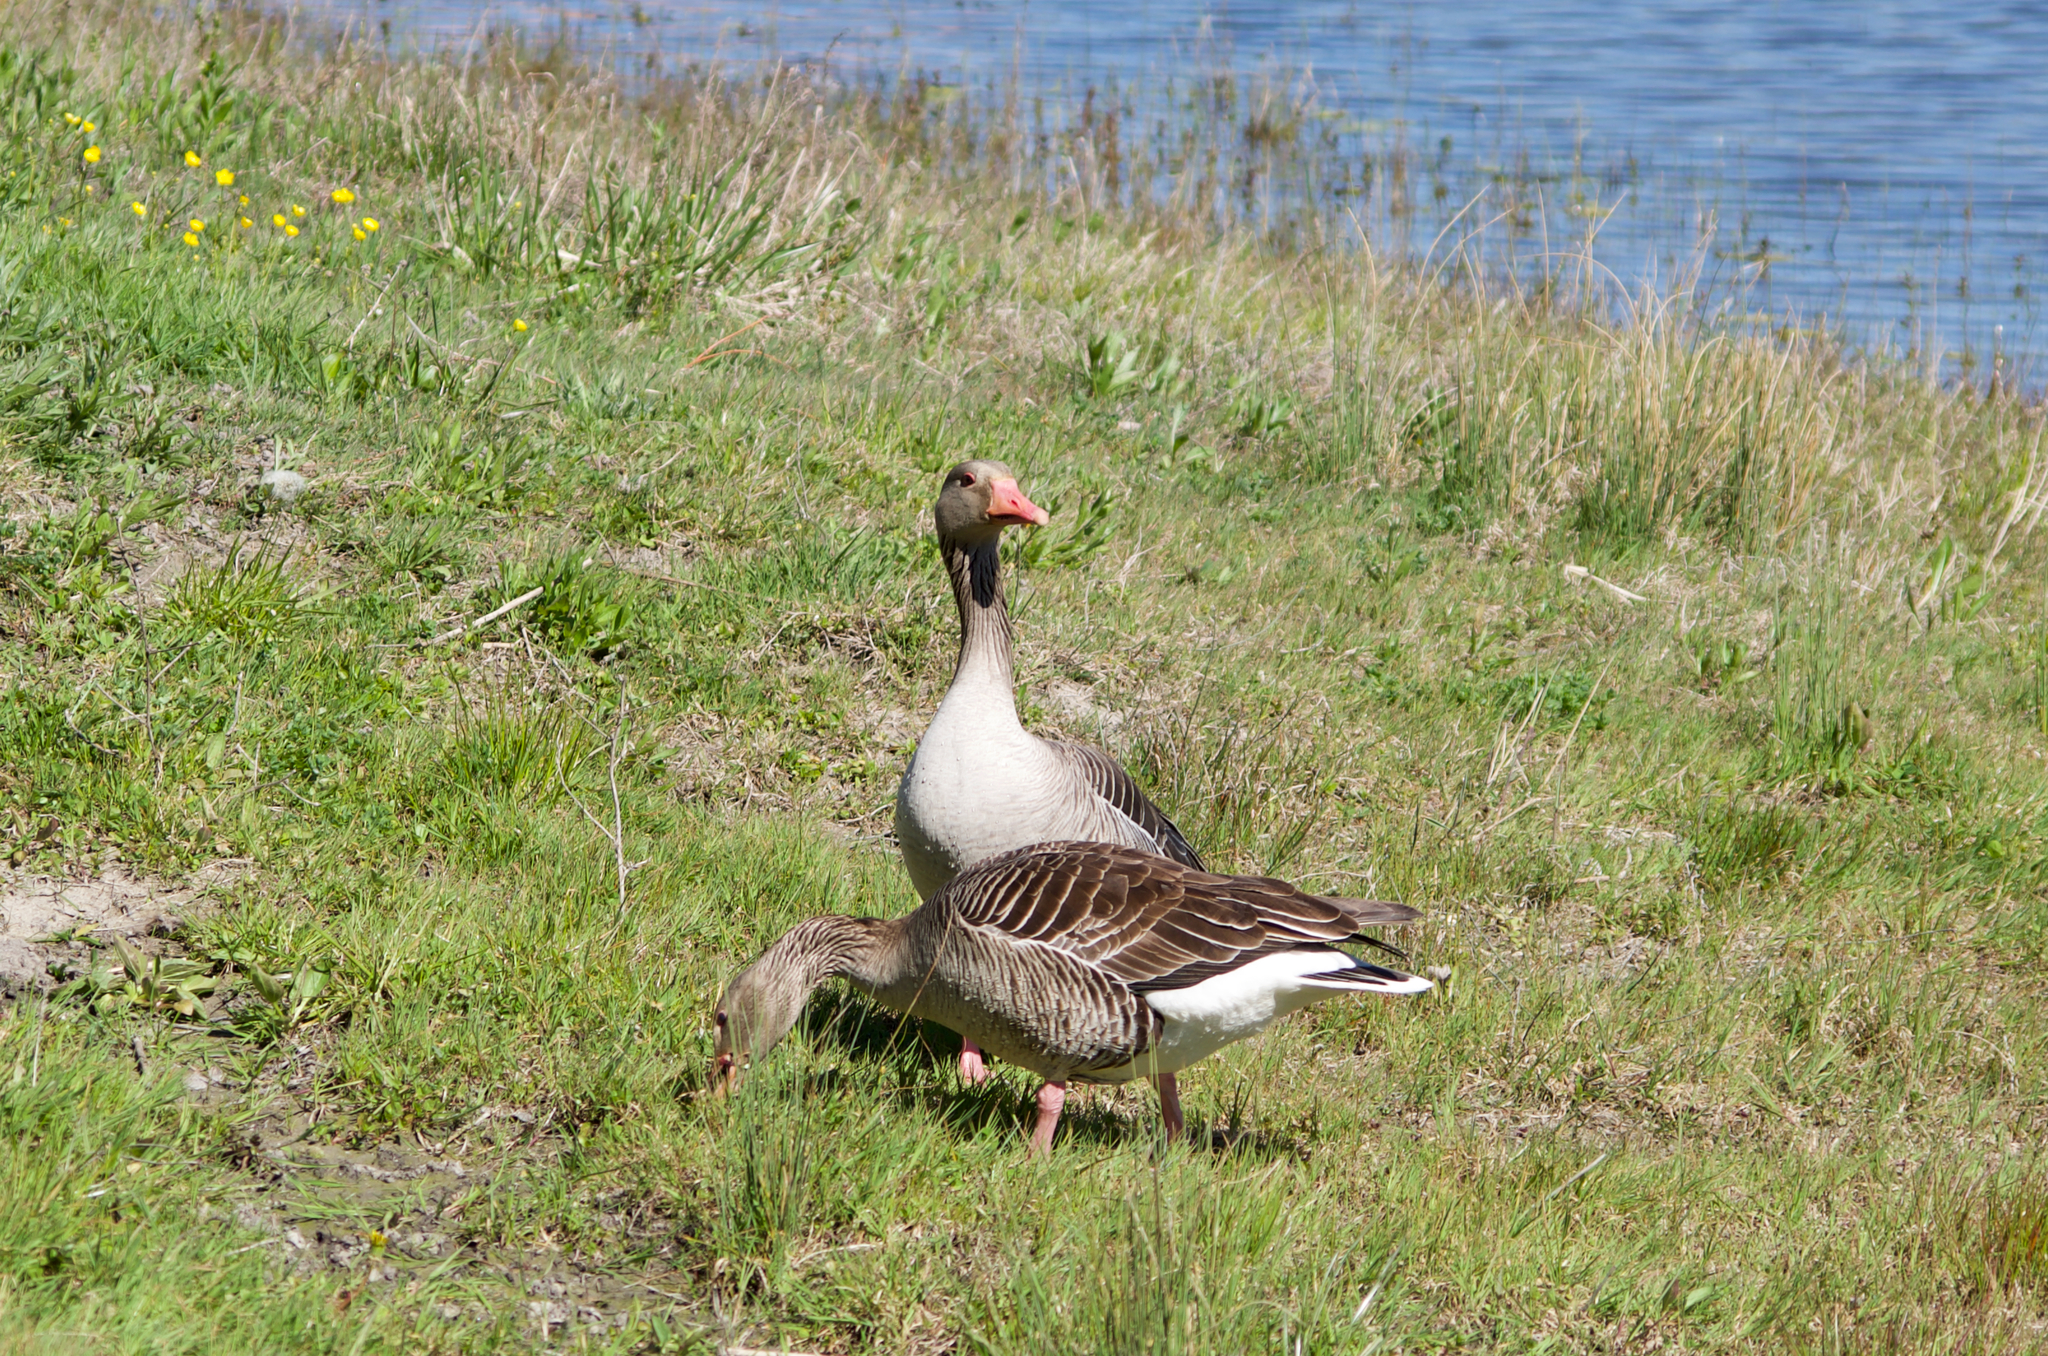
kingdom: Animalia
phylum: Chordata
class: Aves
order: Anseriformes
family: Anatidae
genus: Anser
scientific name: Anser anser
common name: Greylag goose
